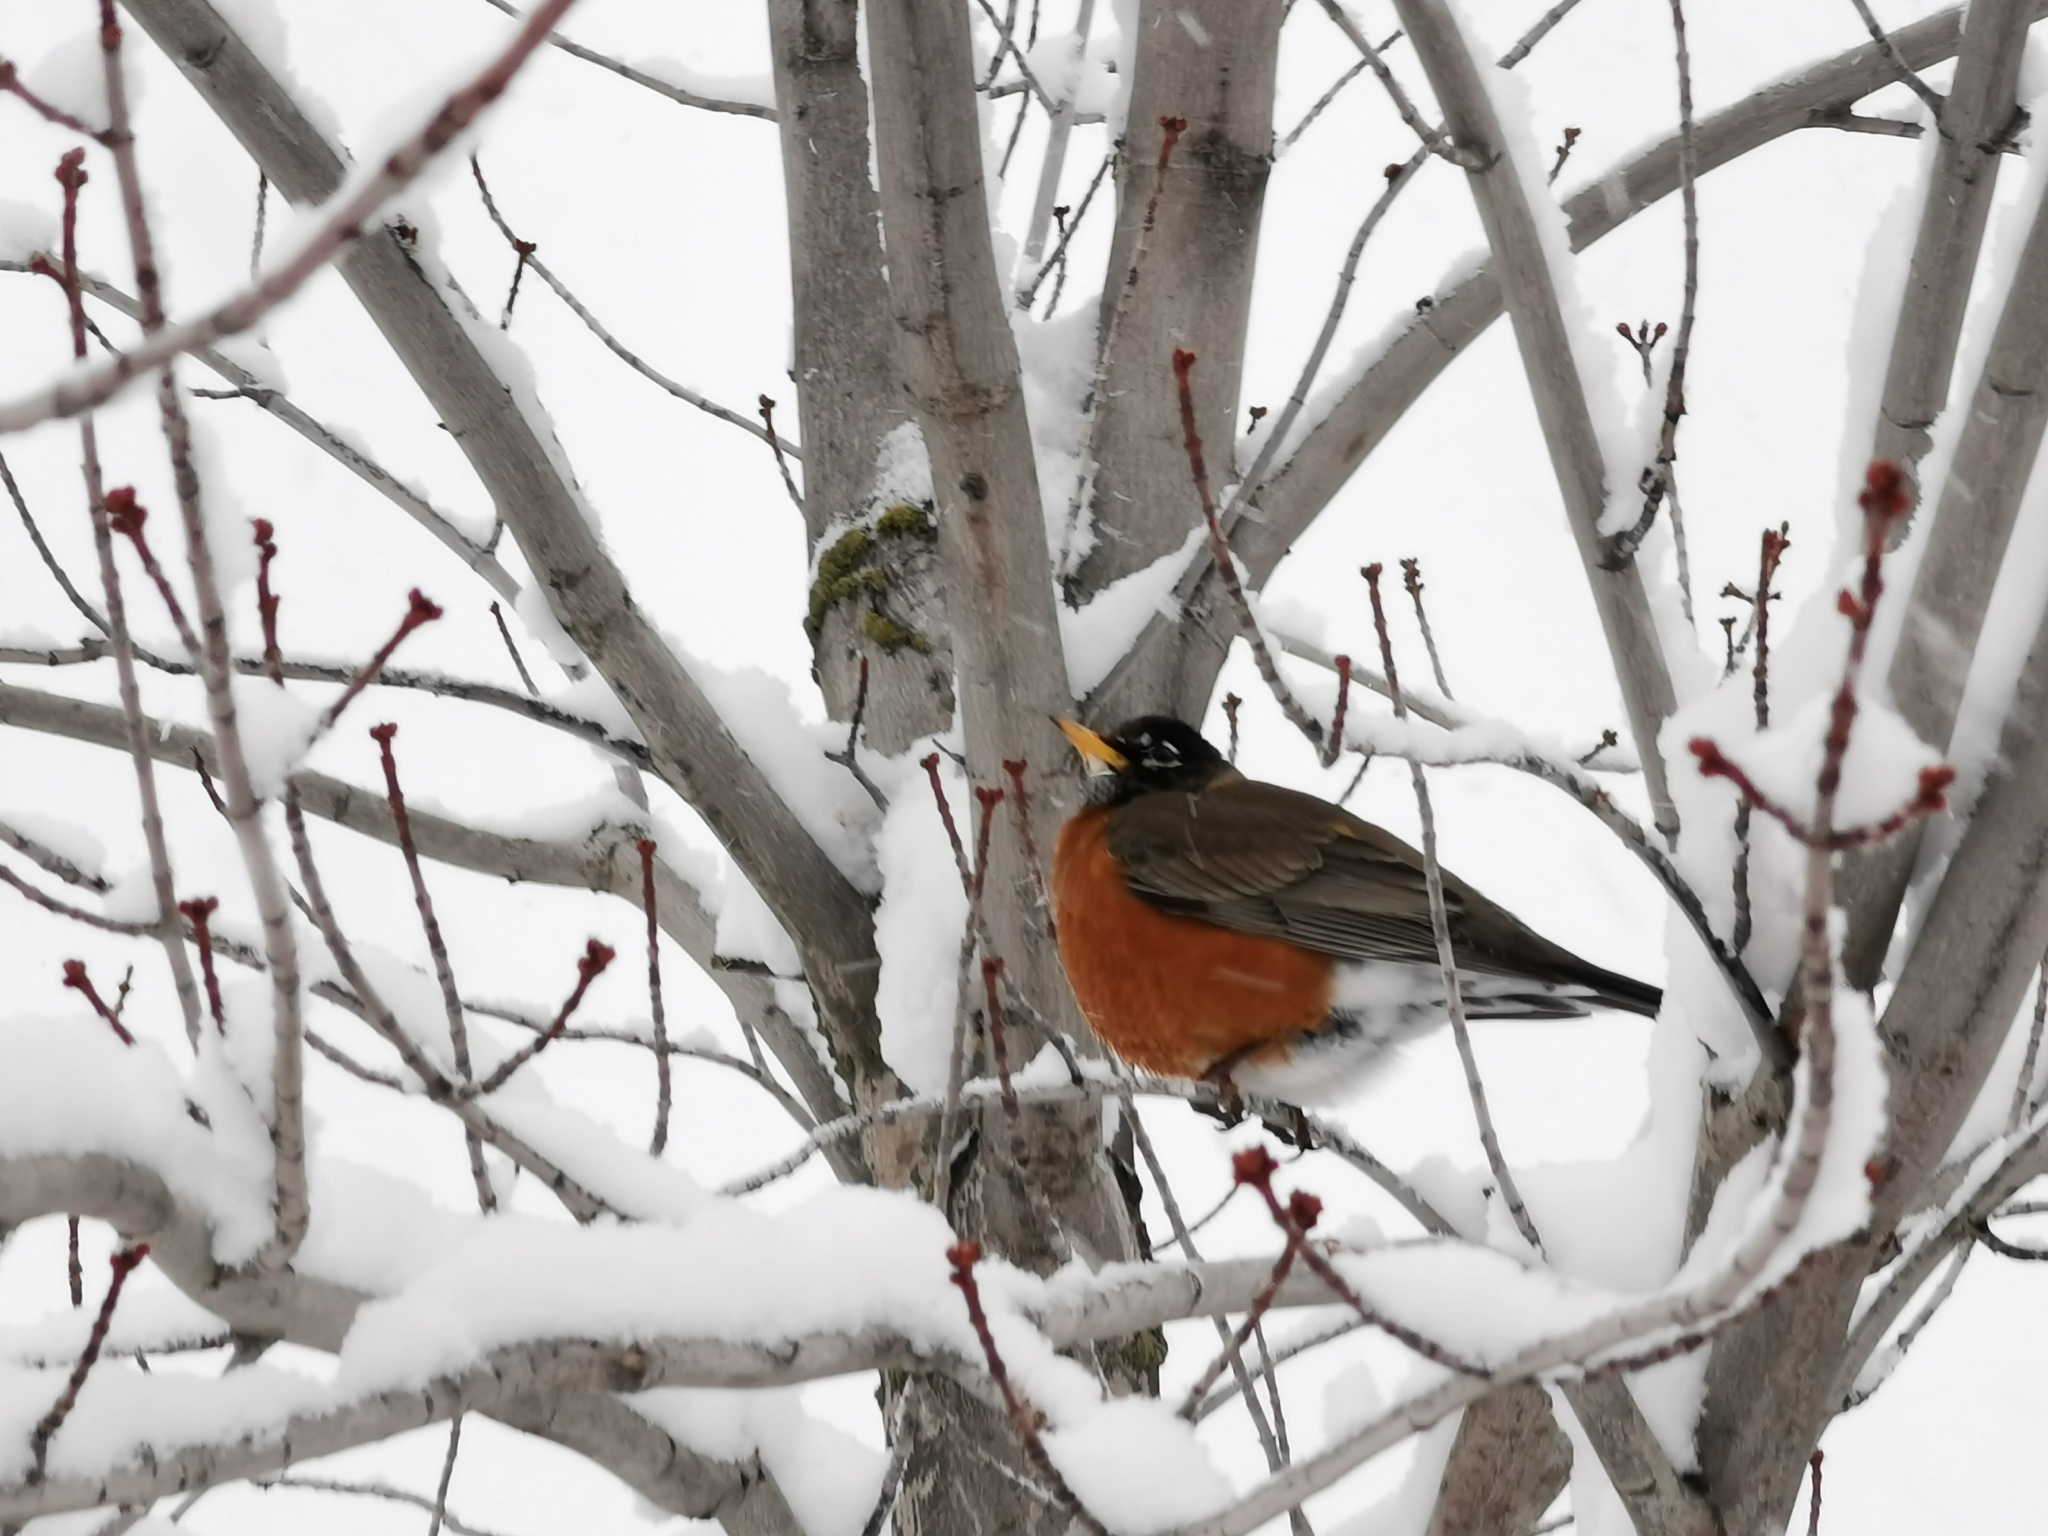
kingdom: Animalia
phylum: Chordata
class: Aves
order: Passeriformes
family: Turdidae
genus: Turdus
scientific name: Turdus migratorius
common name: American robin
